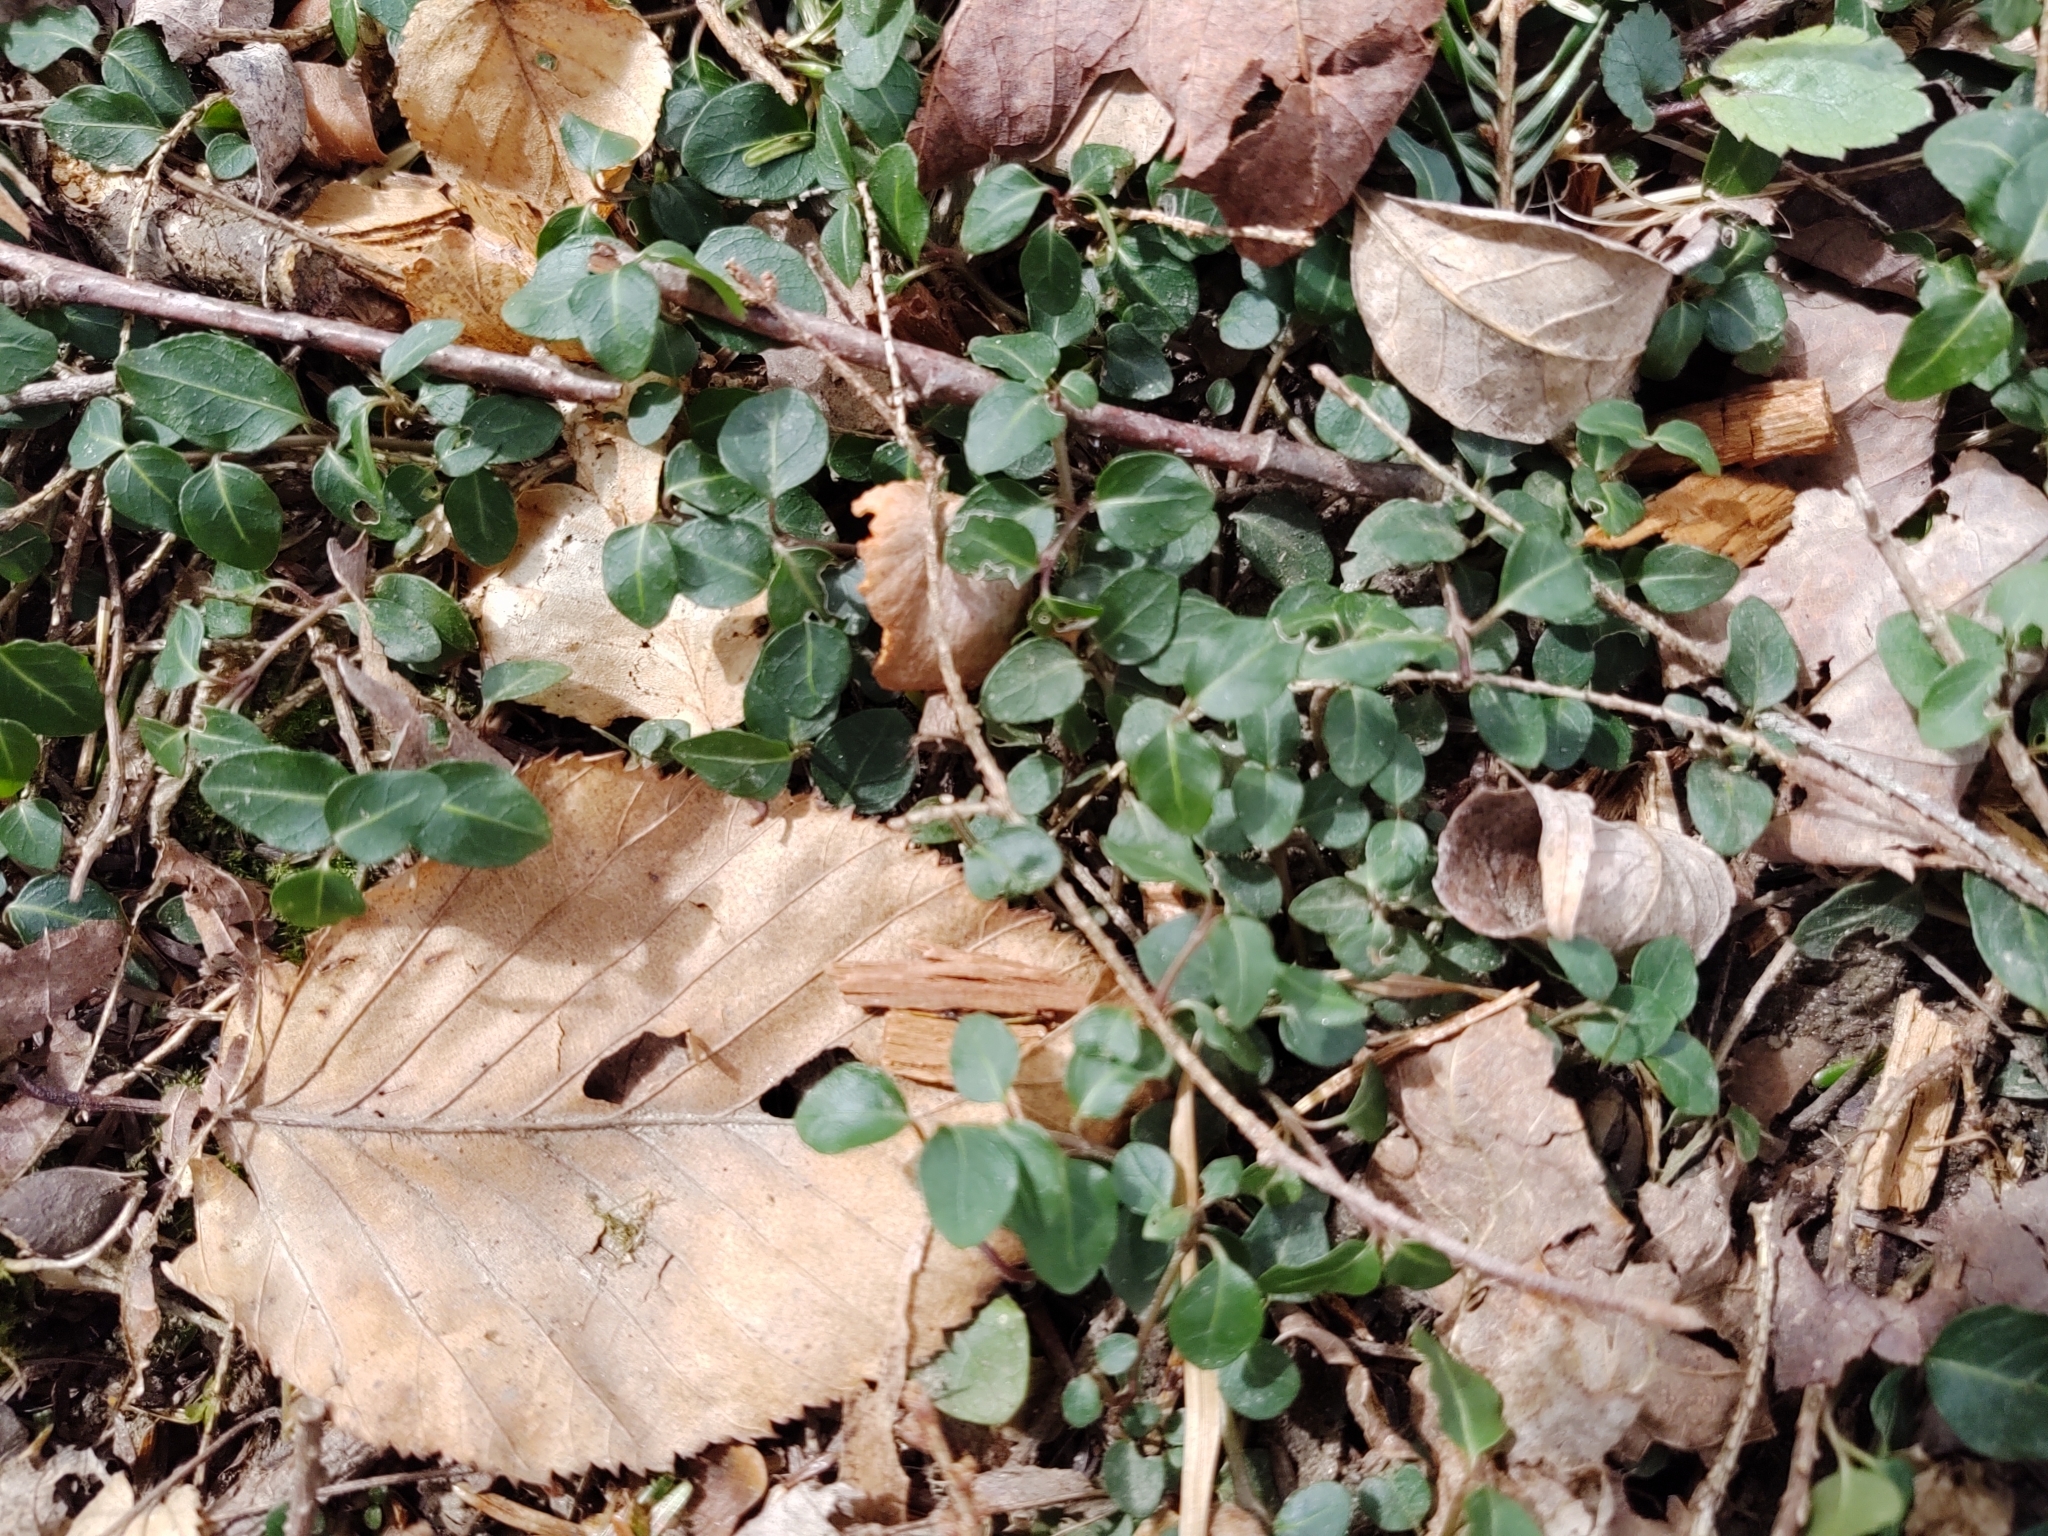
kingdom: Plantae
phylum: Tracheophyta
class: Magnoliopsida
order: Gentianales
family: Rubiaceae
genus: Mitchella
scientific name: Mitchella repens
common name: Partridge-berry
